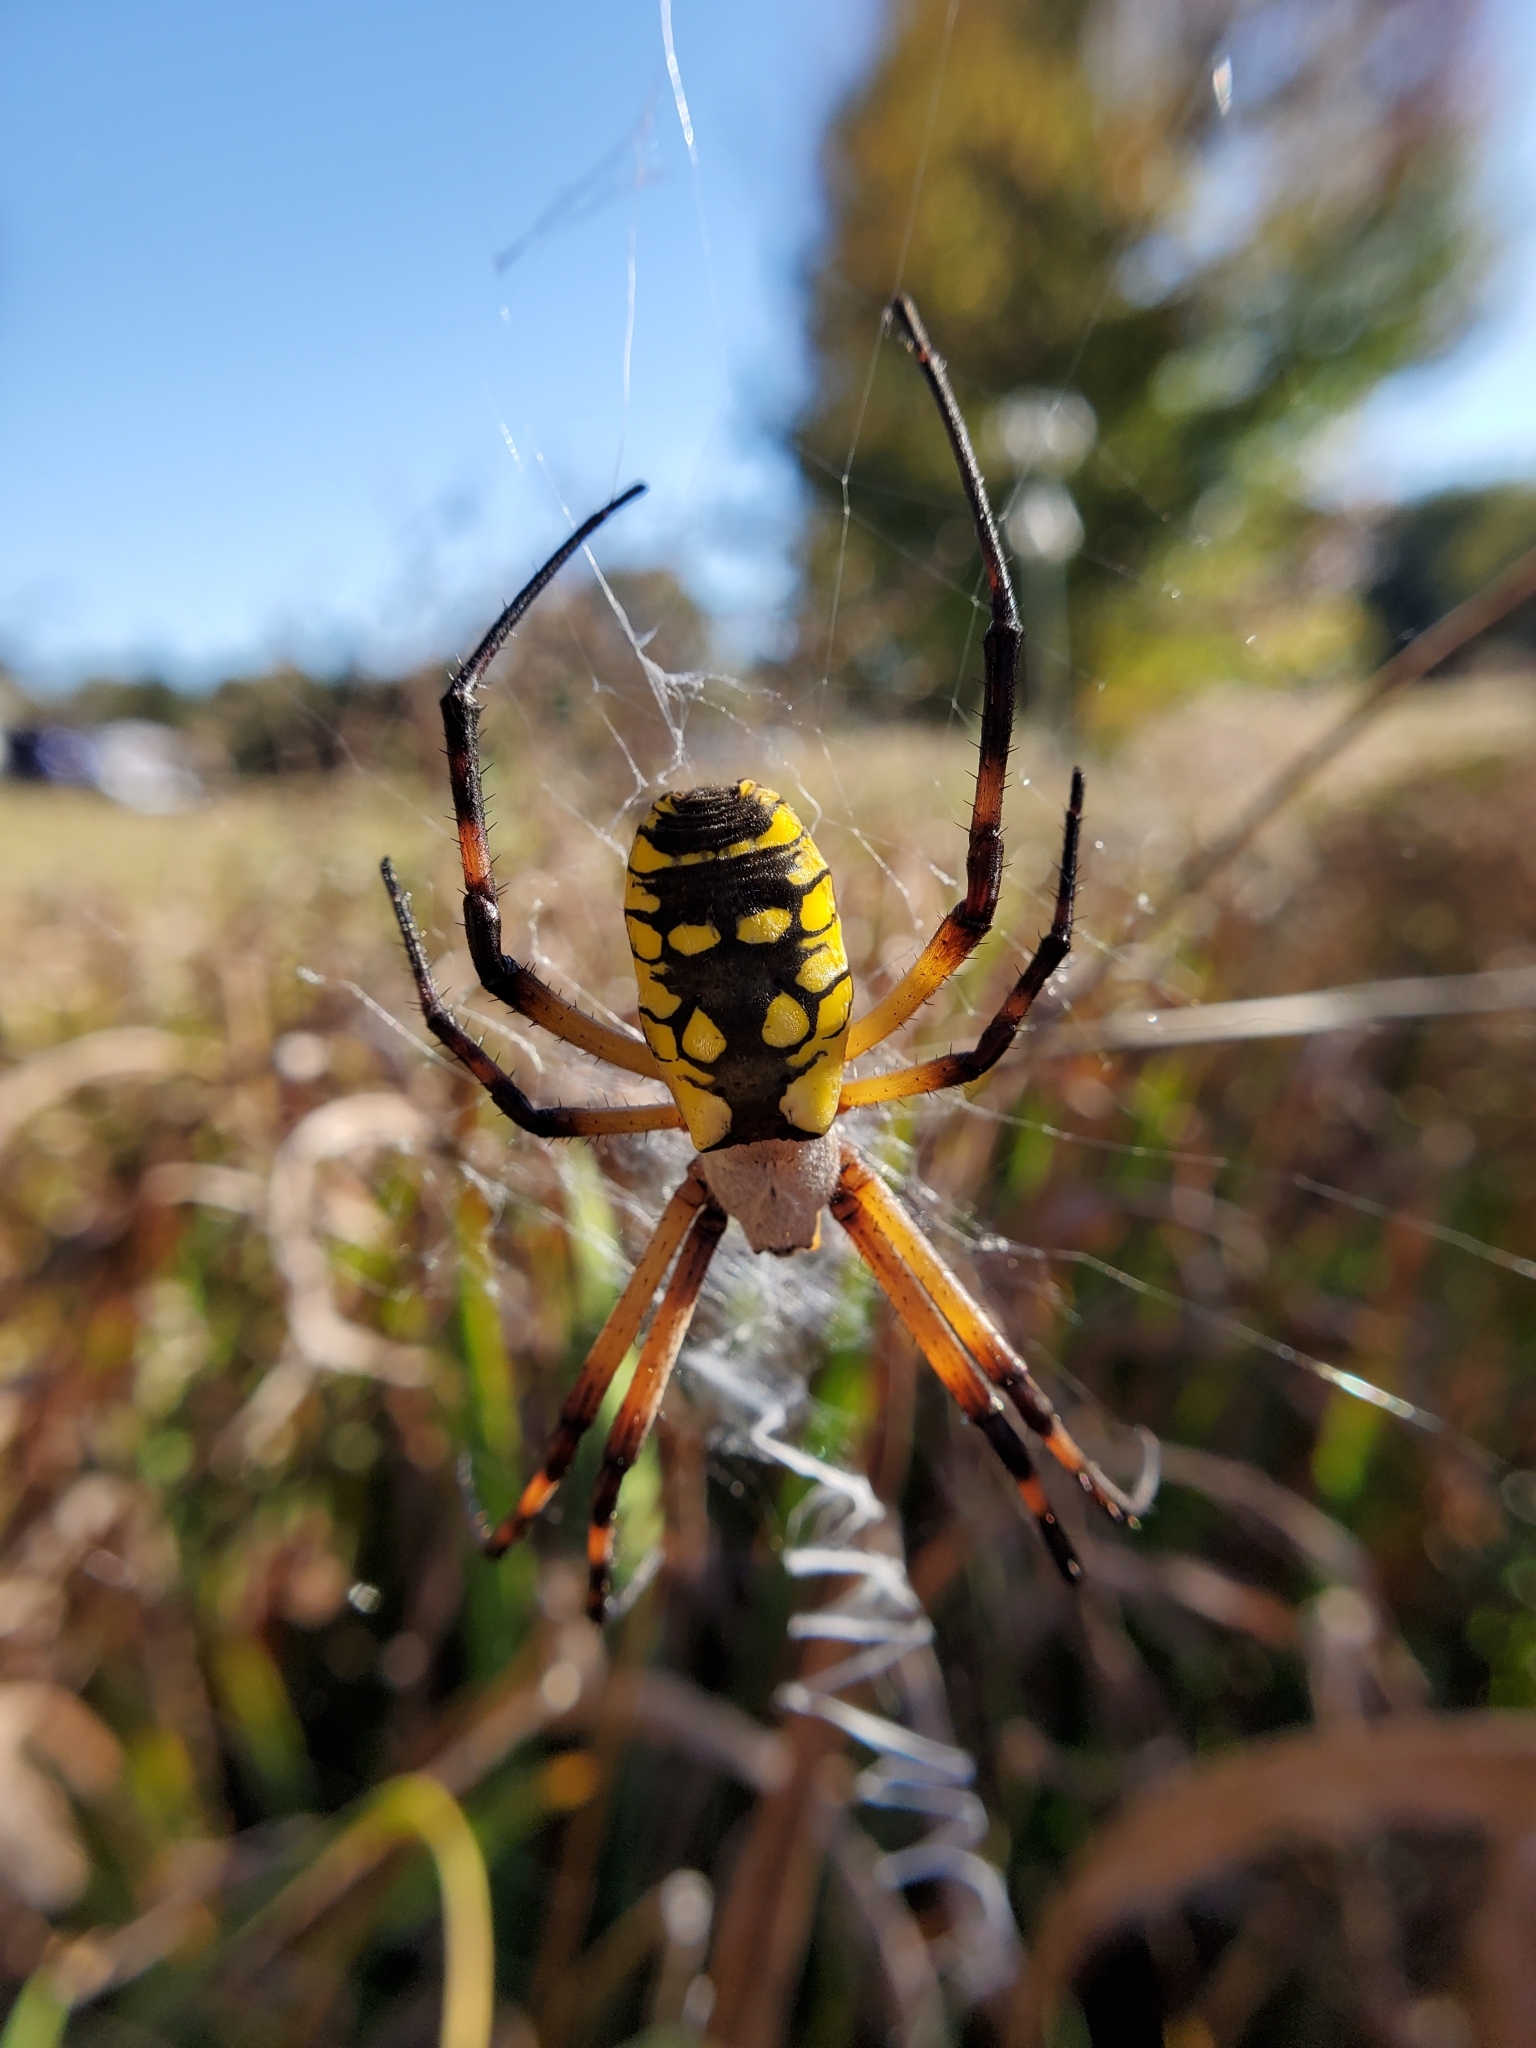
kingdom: Animalia
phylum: Arthropoda
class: Arachnida
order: Araneae
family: Araneidae
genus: Argiope
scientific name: Argiope aurantia
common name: Orb weavers
